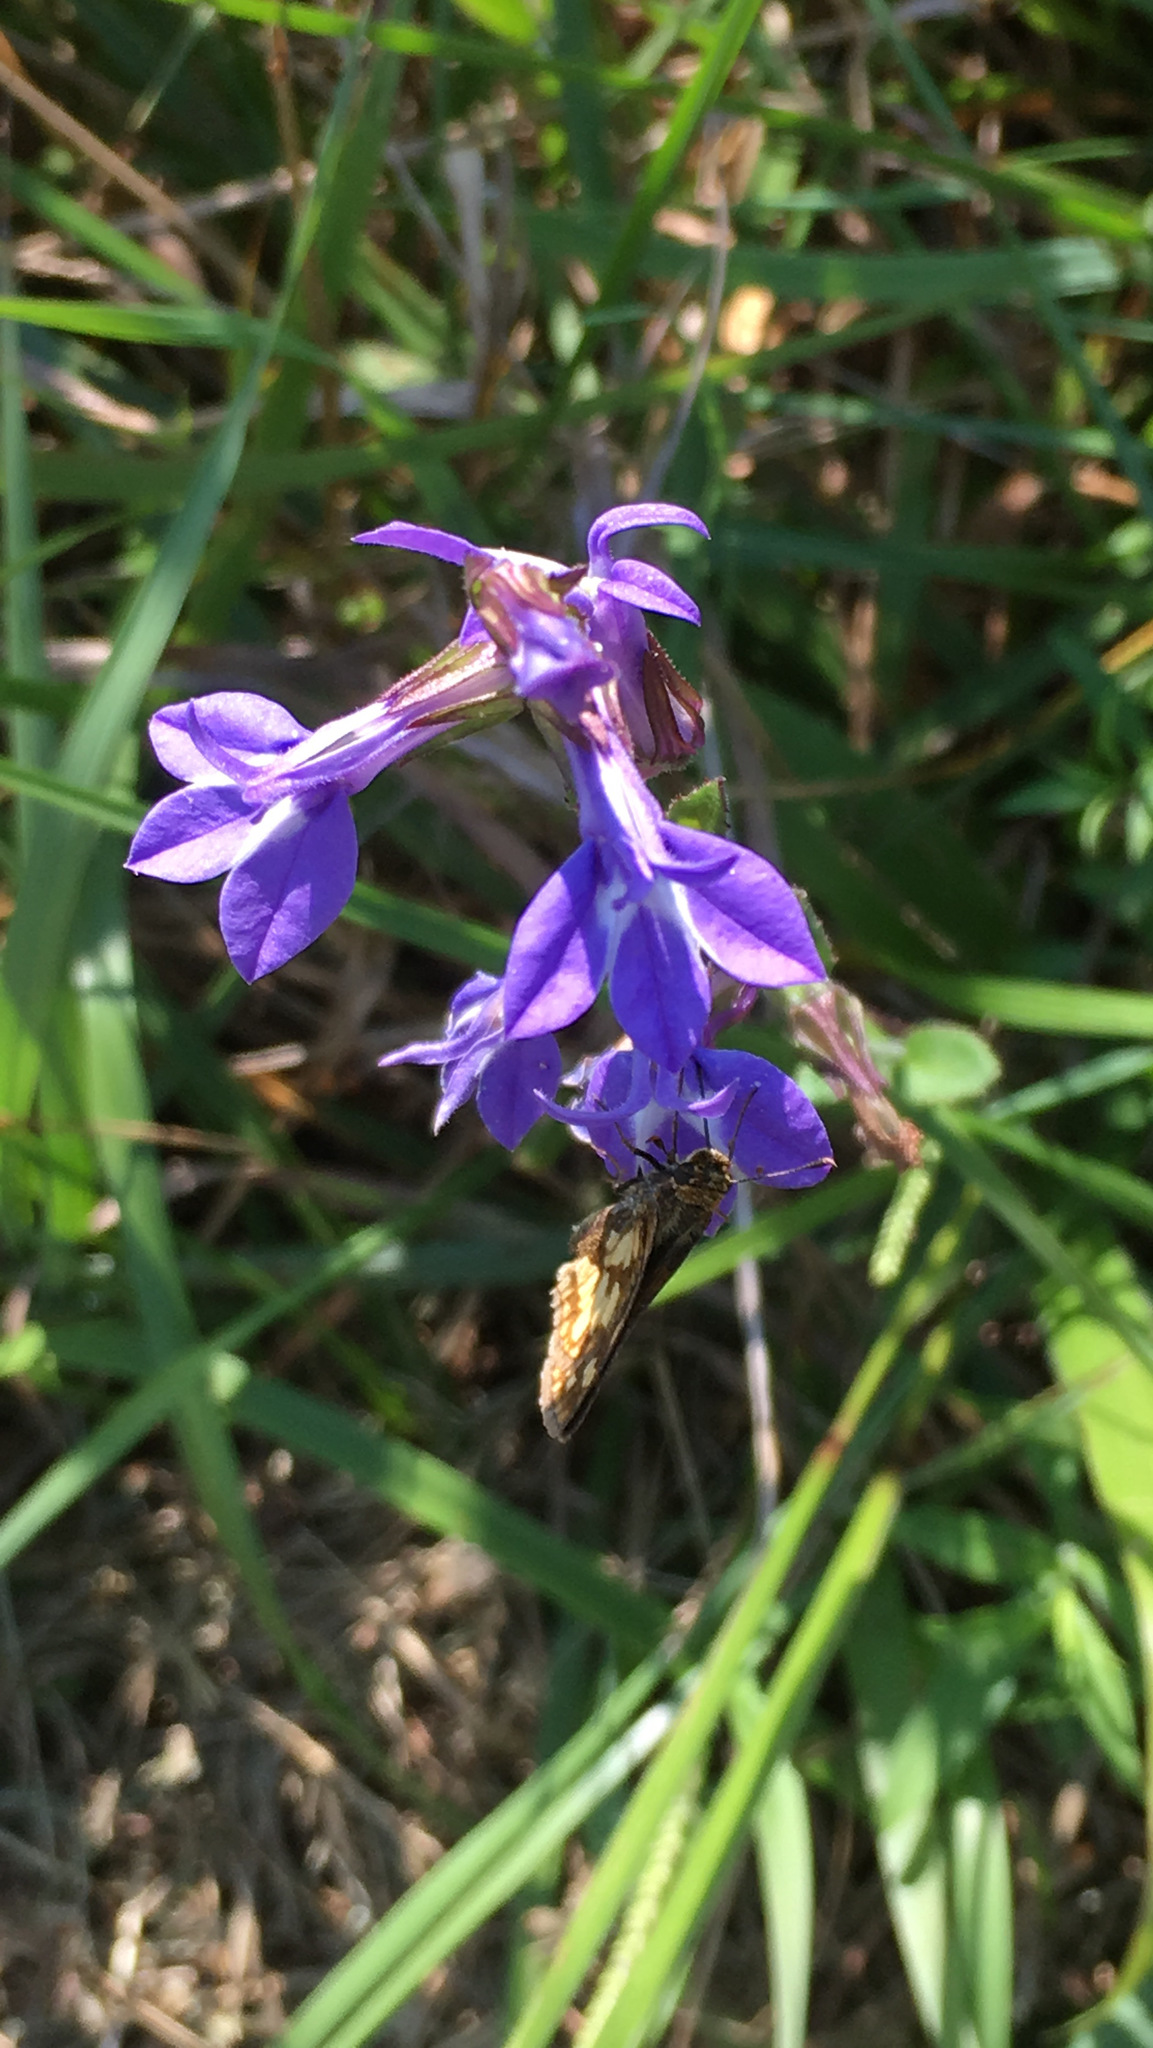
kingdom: Plantae
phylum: Tracheophyta
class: Magnoliopsida
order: Asterales
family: Campanulaceae
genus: Lobelia
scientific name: Lobelia puberula
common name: Purple dewdrop
